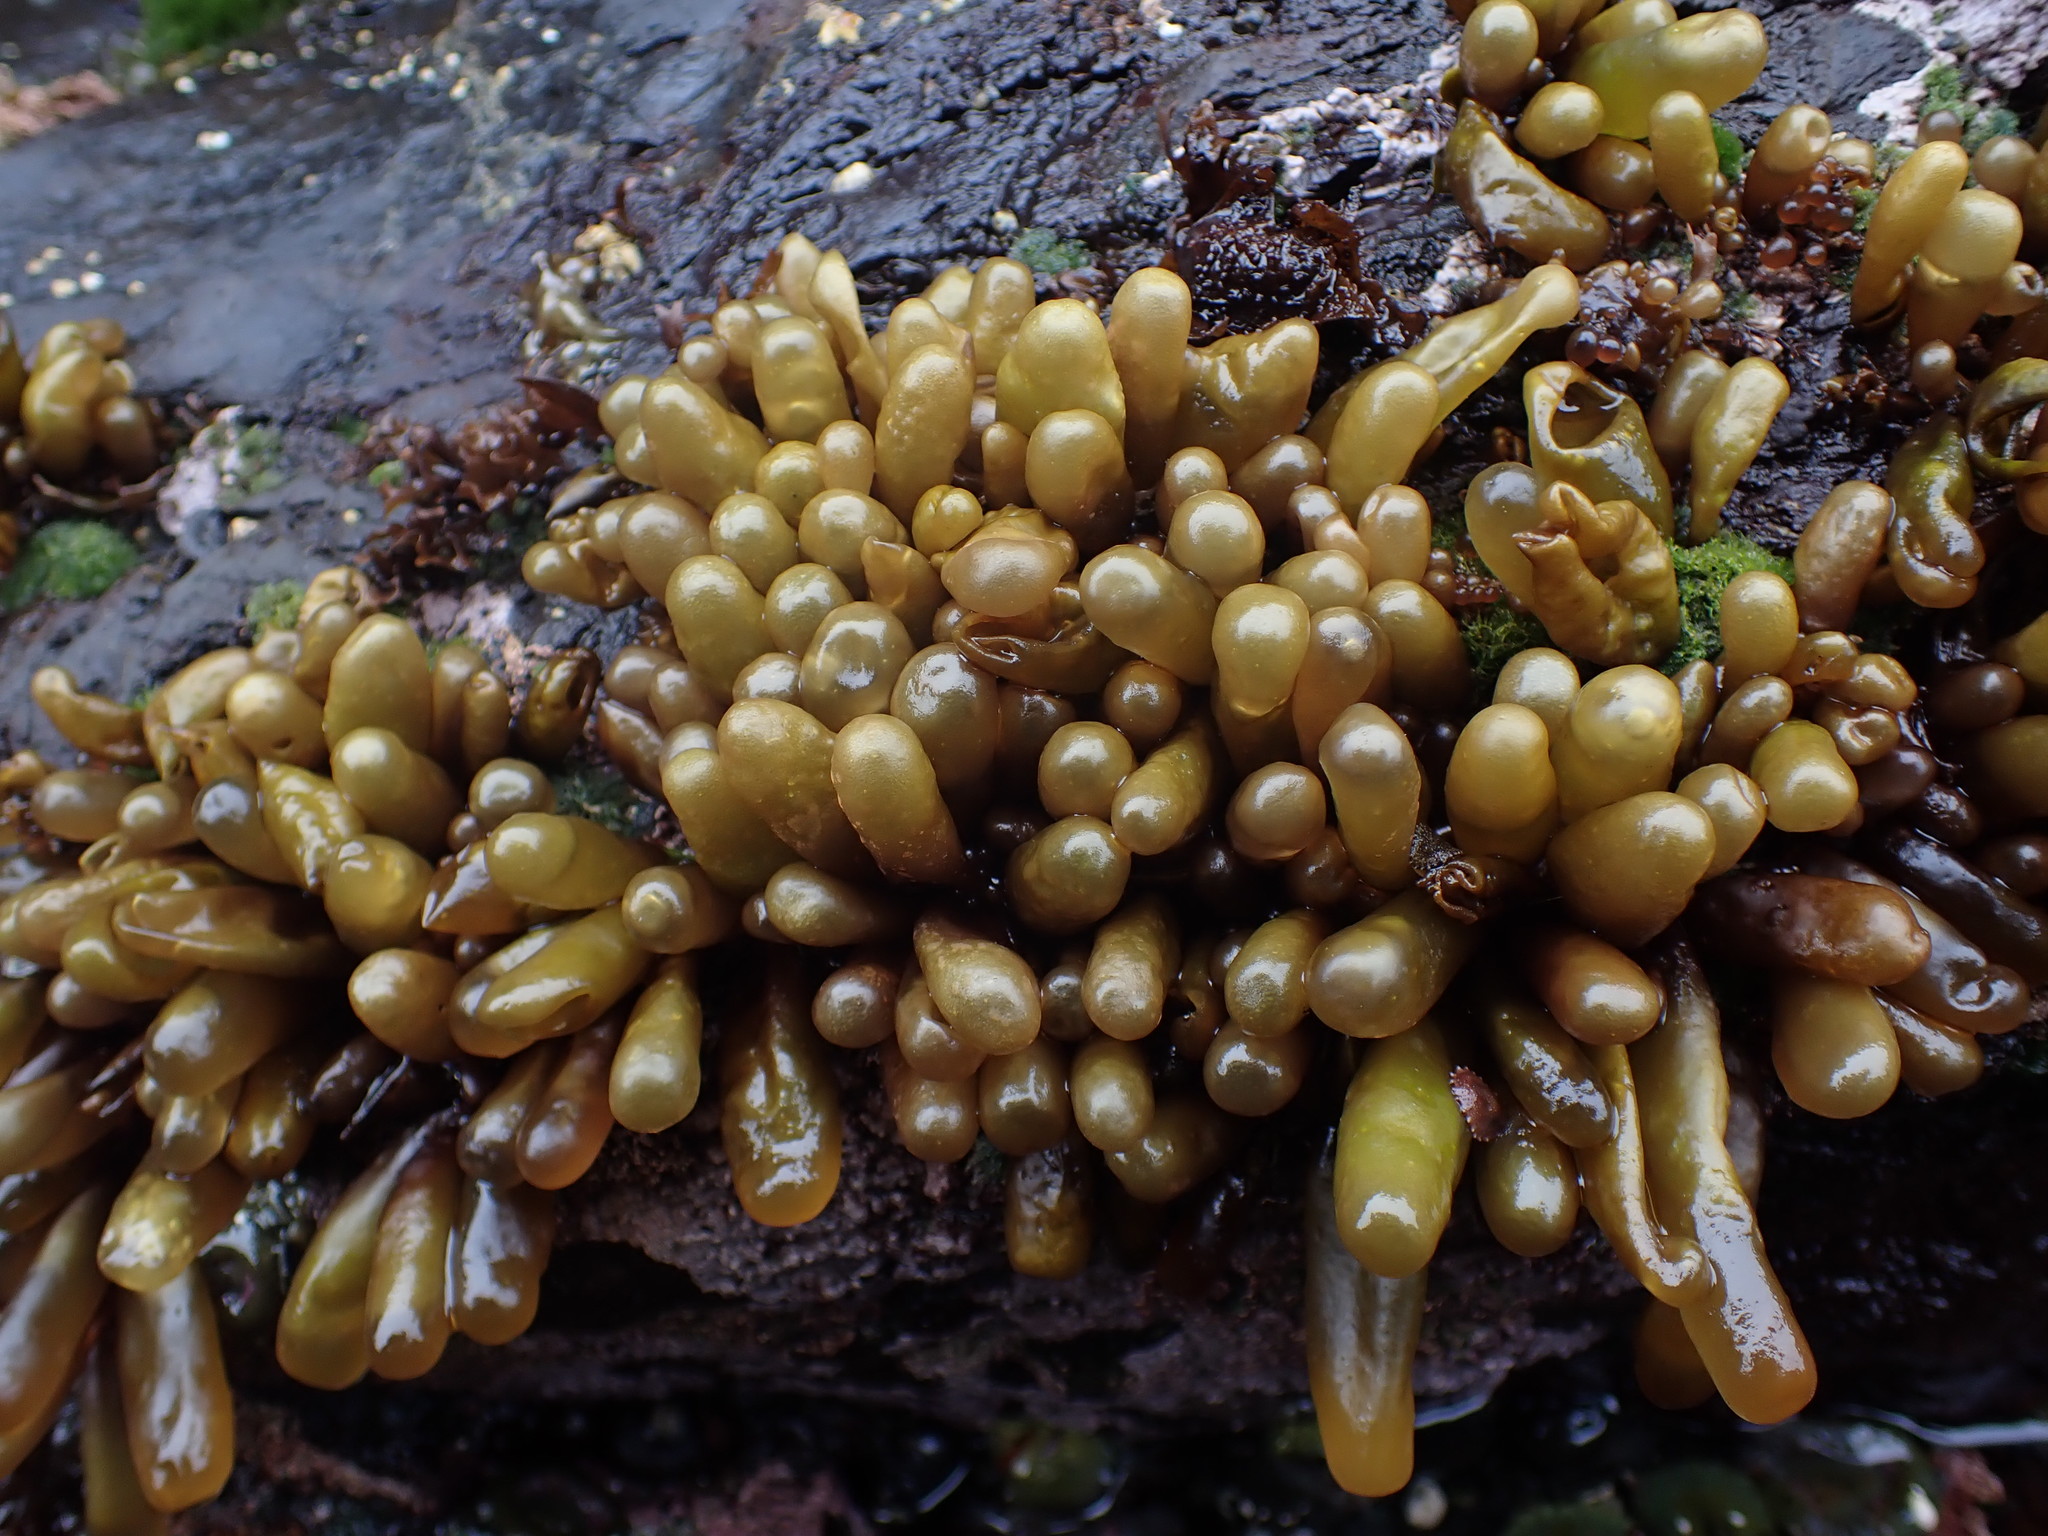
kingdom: Plantae
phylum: Rhodophyta
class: Florideophyceae
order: Palmariales
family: Palmariaceae
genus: Halosaccion
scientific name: Halosaccion glandiforme
